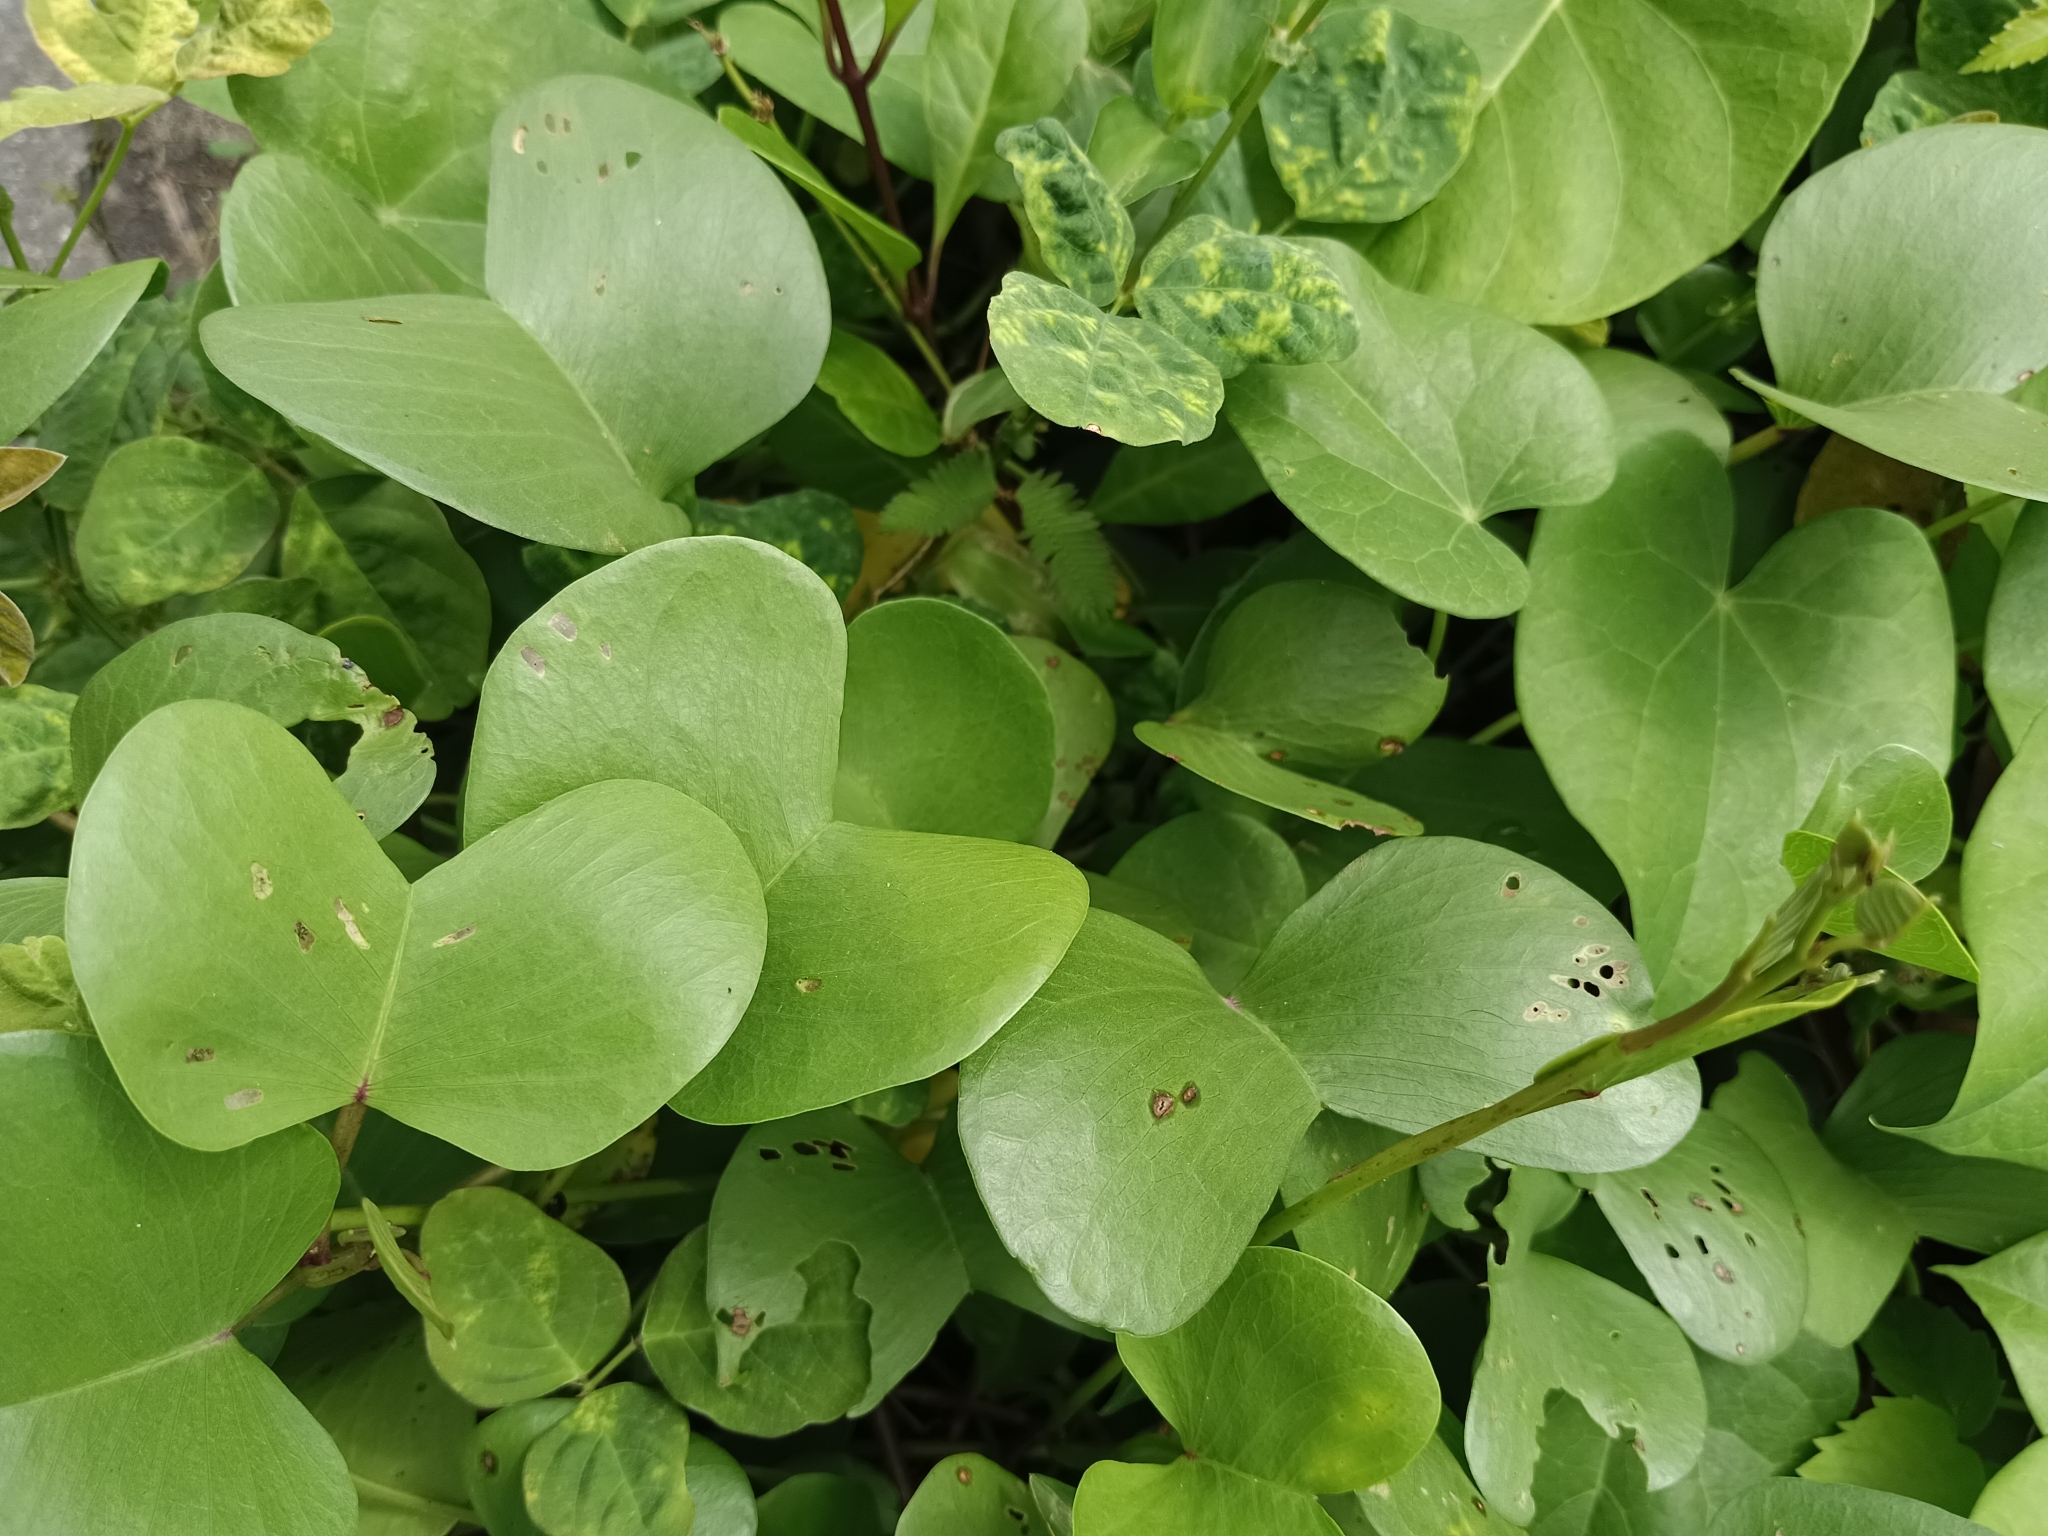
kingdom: Plantae
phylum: Tracheophyta
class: Magnoliopsida
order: Solanales
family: Convolvulaceae
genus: Ipomoea
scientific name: Ipomoea pes-caprae
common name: Beach morning glory
